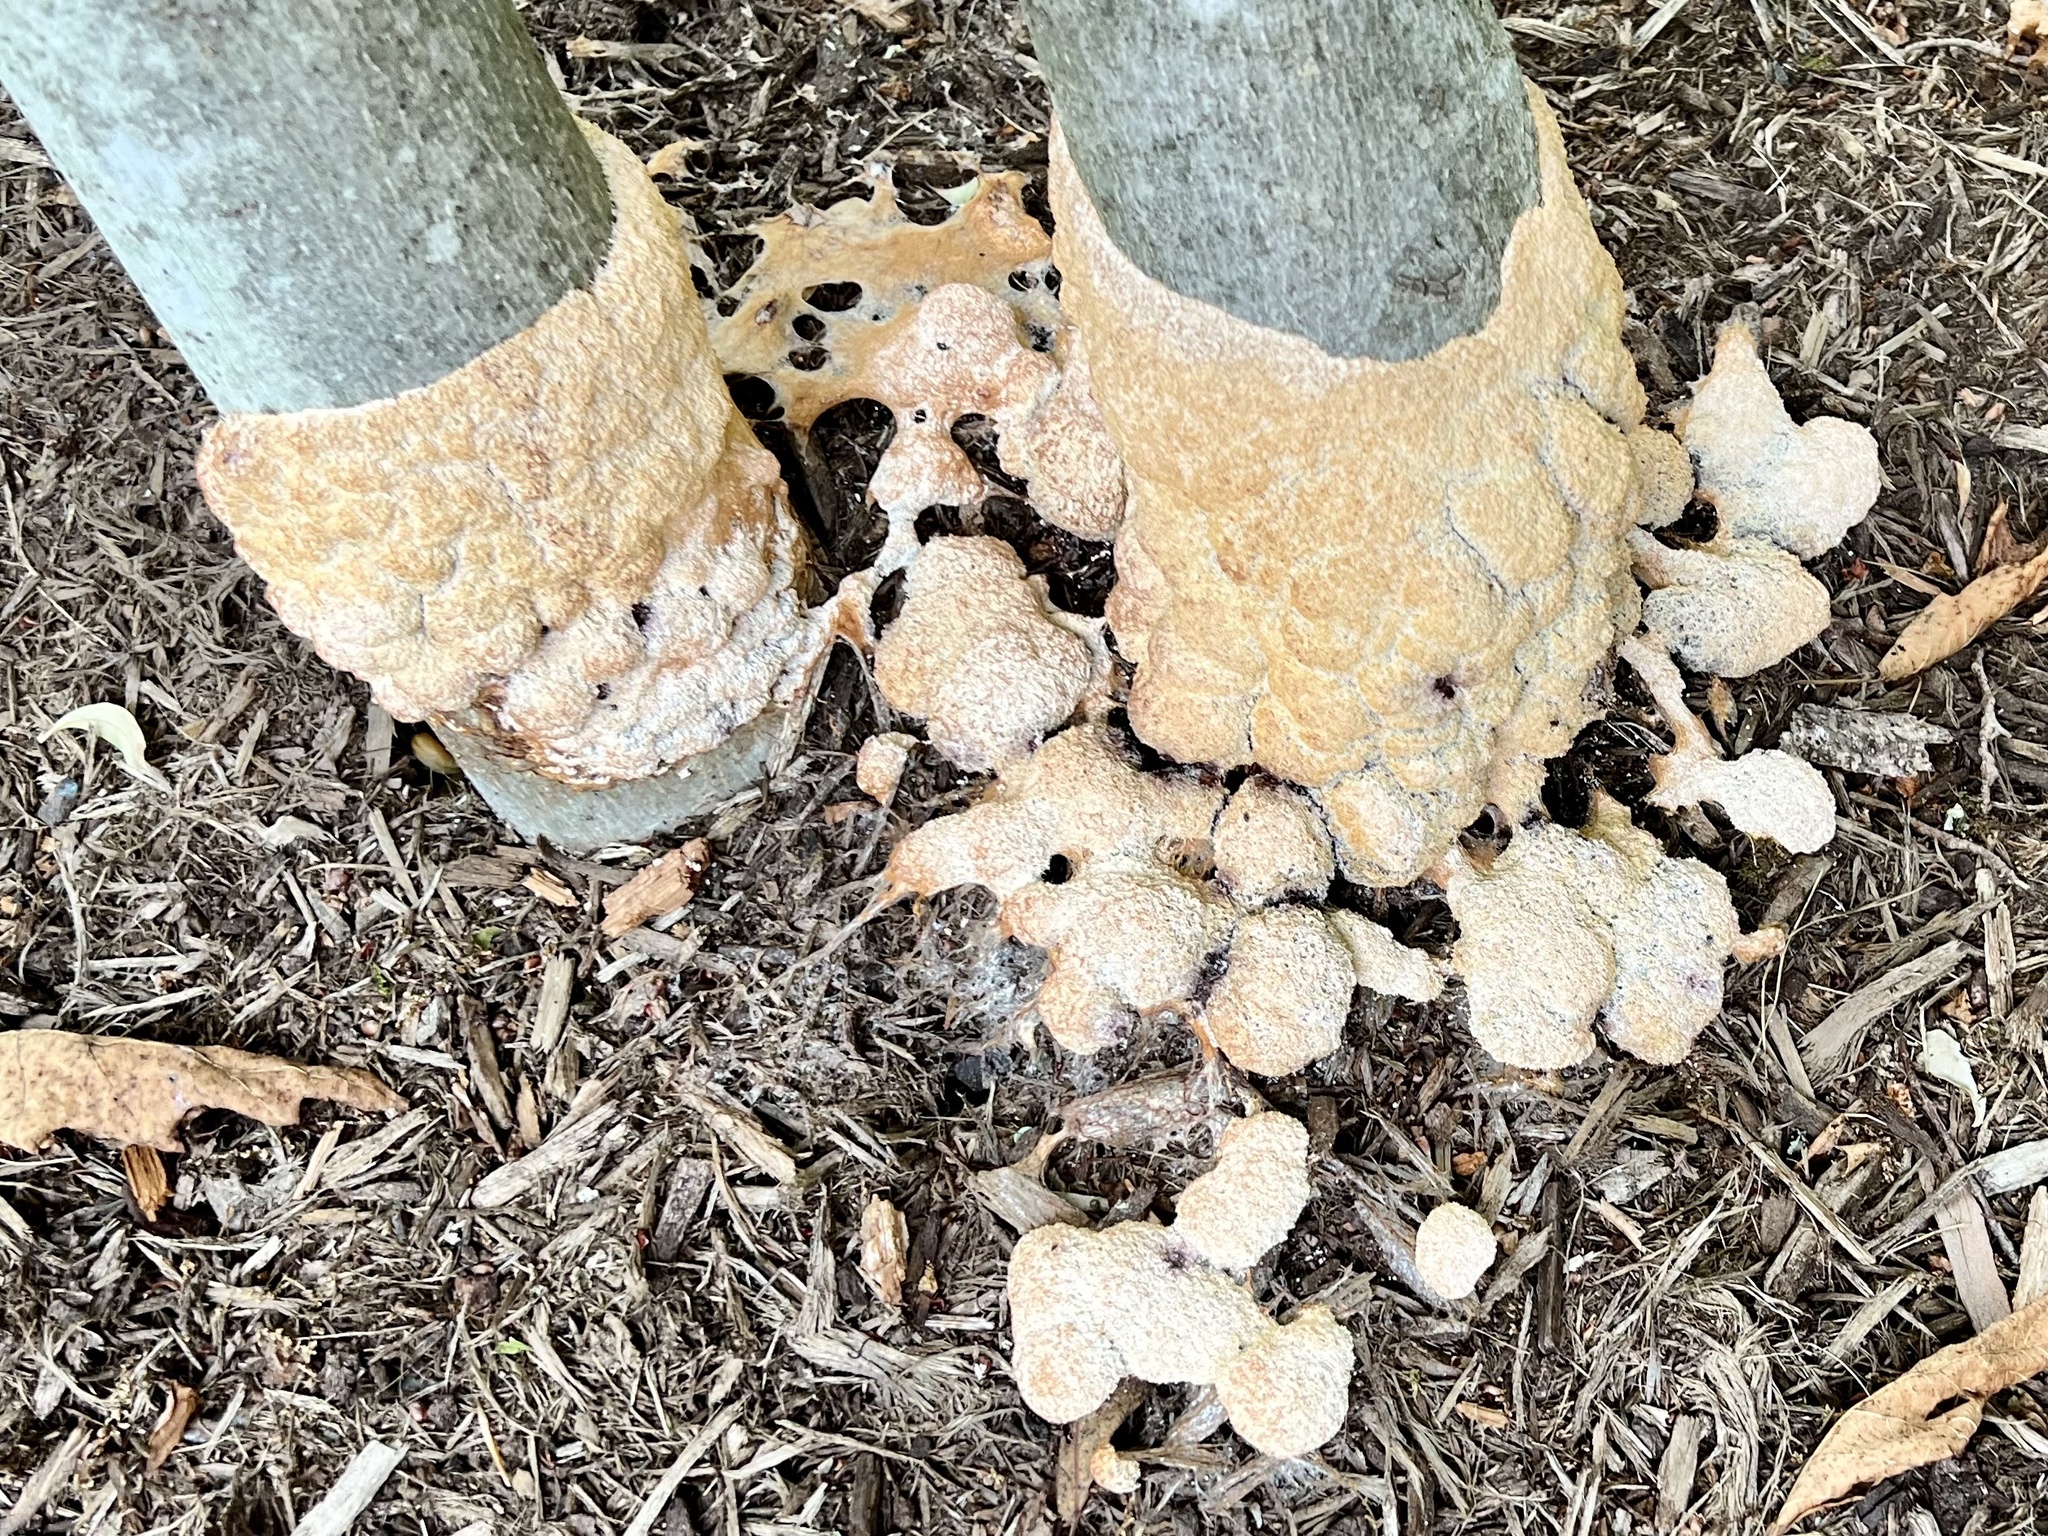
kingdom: Protozoa
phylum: Mycetozoa
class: Myxomycetes
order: Physarales
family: Physaraceae
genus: Fuligo
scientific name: Fuligo septica
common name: Dog vomit slime mold
